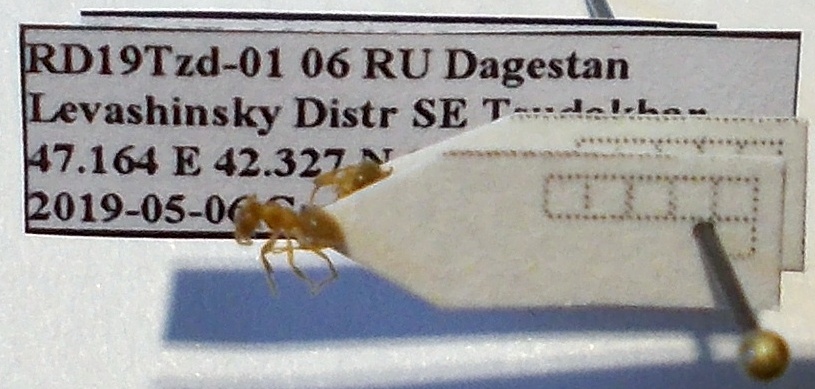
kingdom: Animalia
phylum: Arthropoda
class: Insecta
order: Hymenoptera
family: Formicidae
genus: Lasius
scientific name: Lasius flavus
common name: Blond field ant
